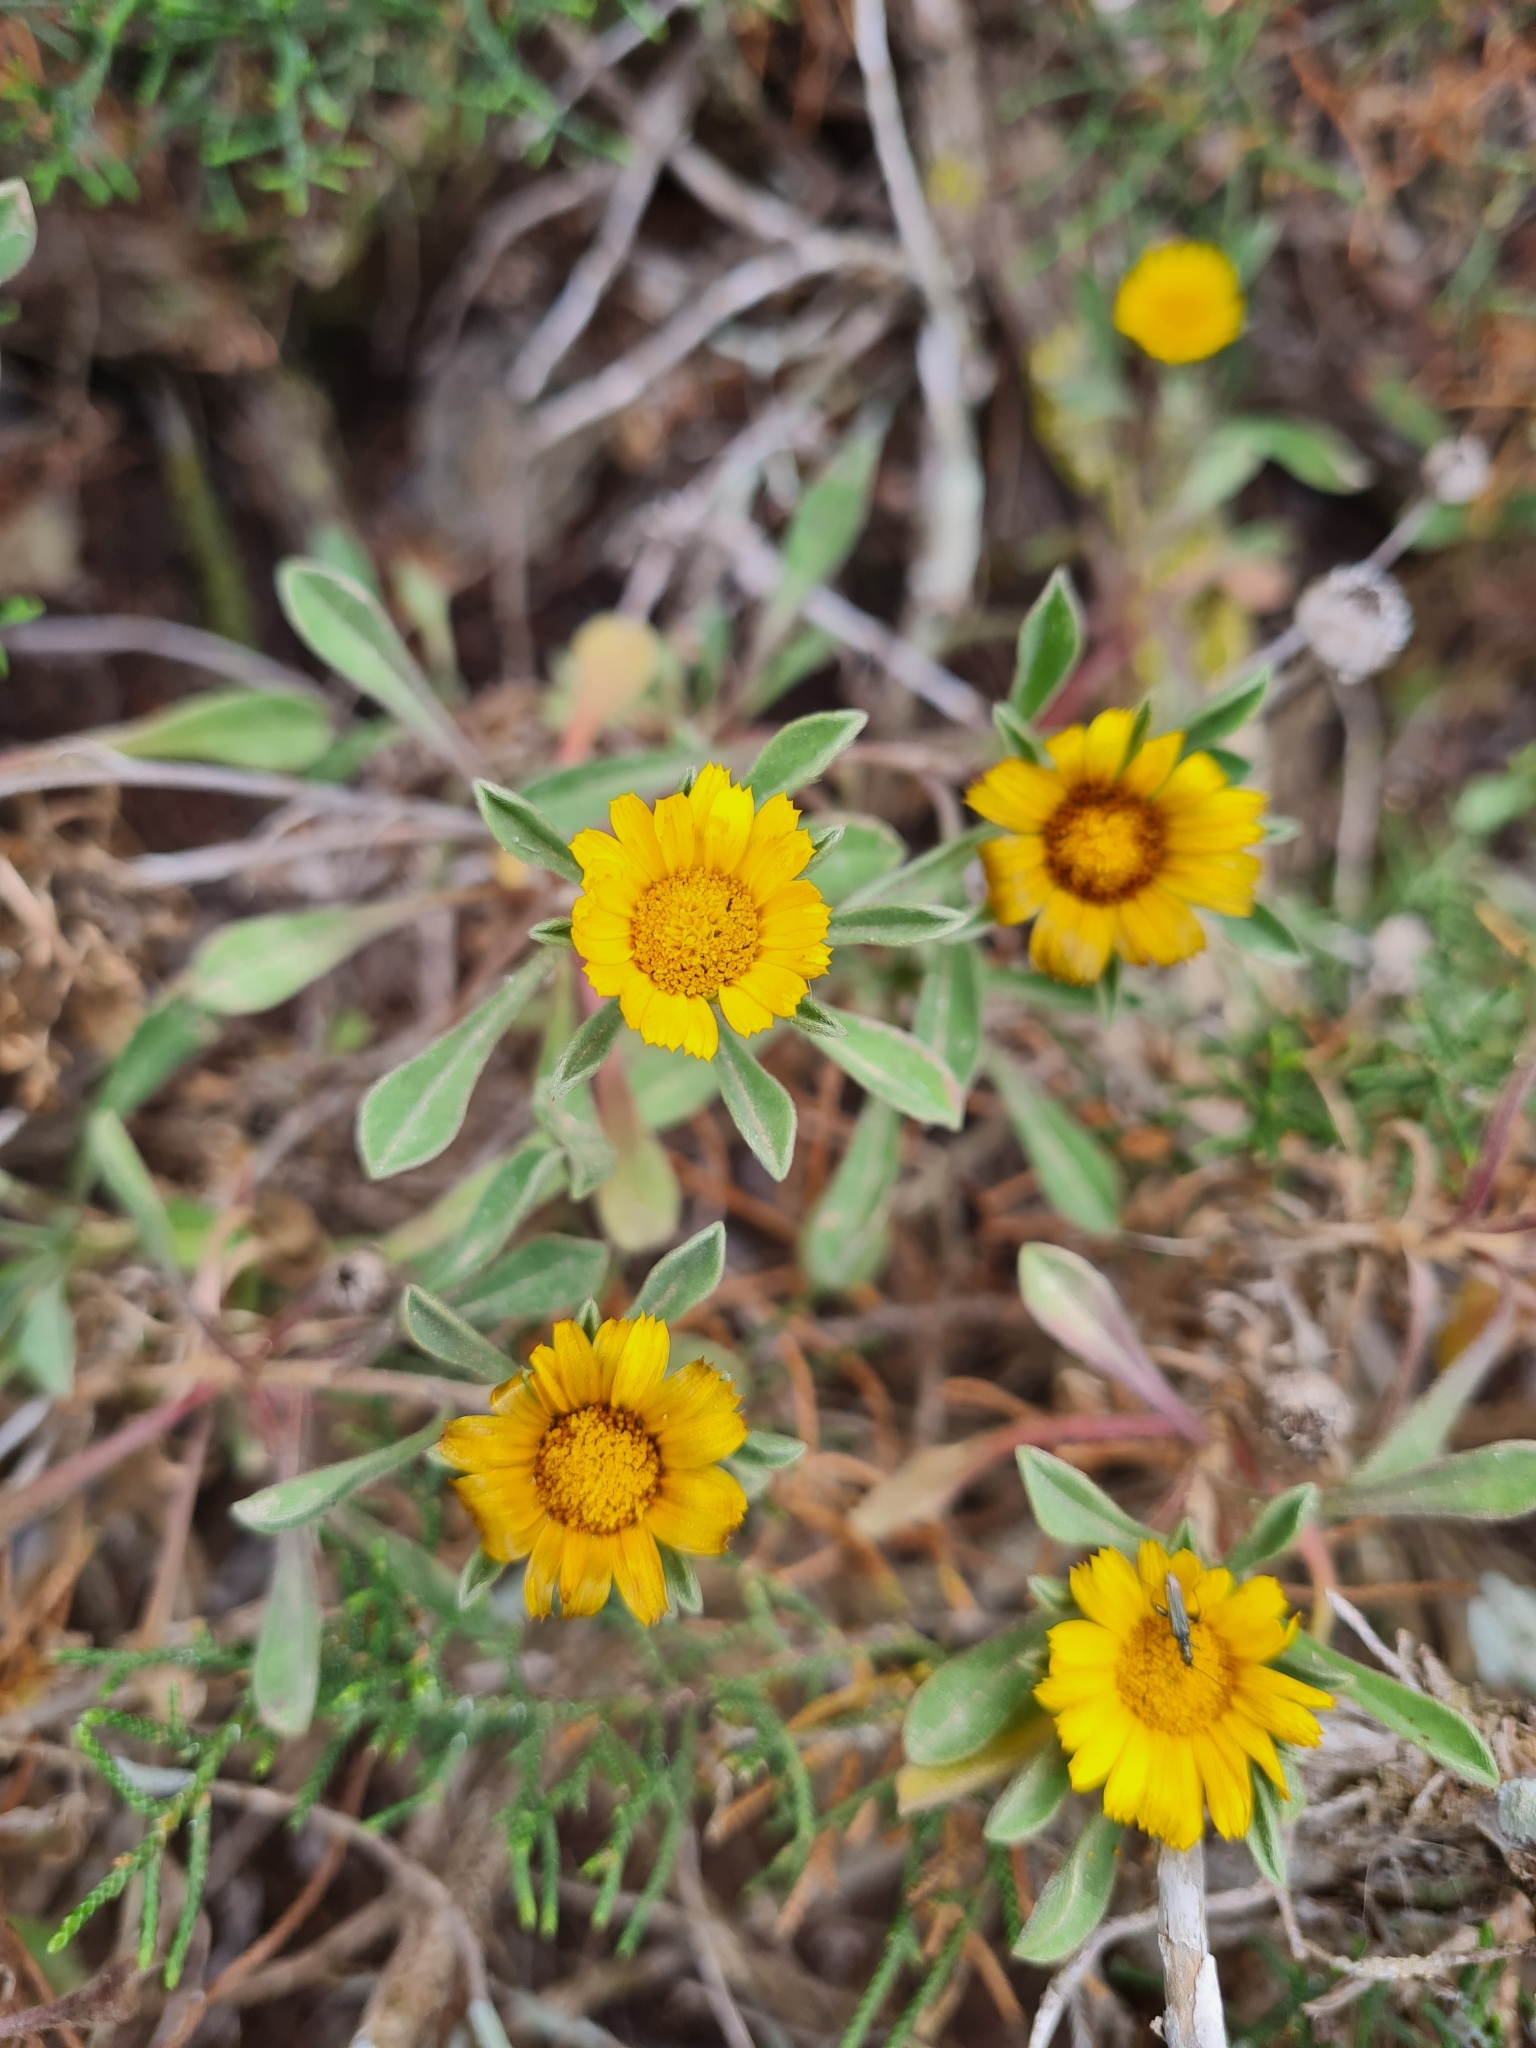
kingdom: Plantae
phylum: Tracheophyta
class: Magnoliopsida
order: Asterales
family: Asteraceae
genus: Pallenis
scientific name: Pallenis maritima
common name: Golden coin daisy
